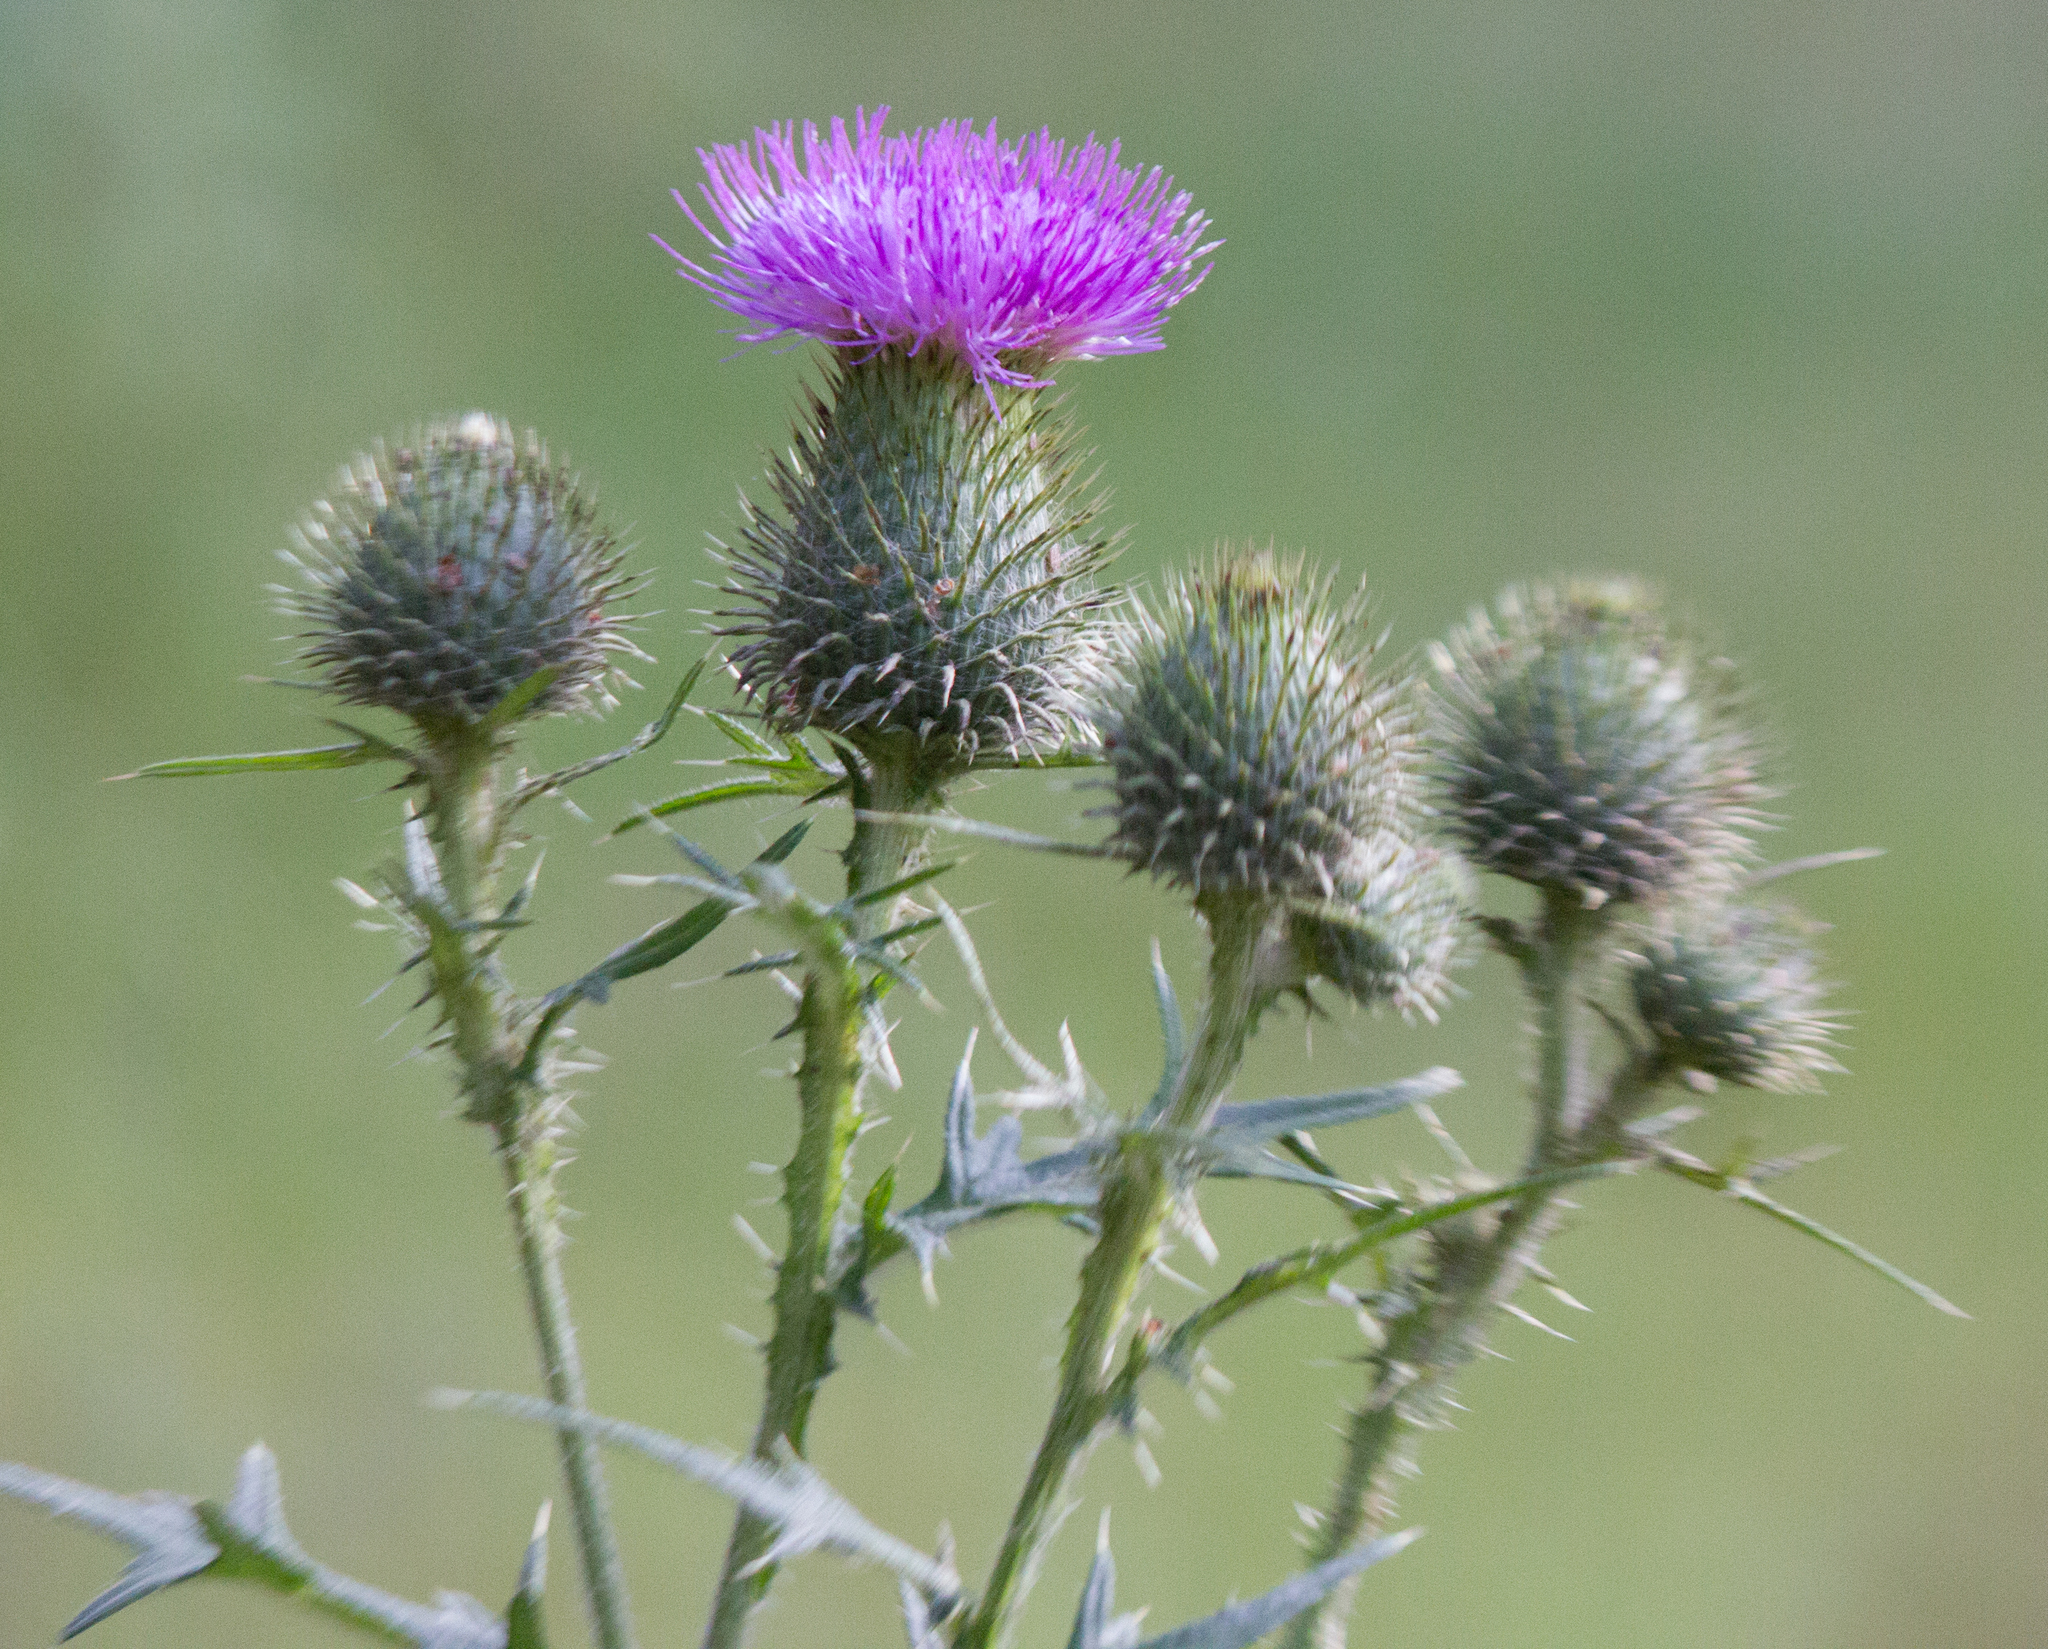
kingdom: Plantae
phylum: Tracheophyta
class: Magnoliopsida
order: Asterales
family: Asteraceae
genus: Cirsium
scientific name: Cirsium vulgare
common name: Bull thistle
